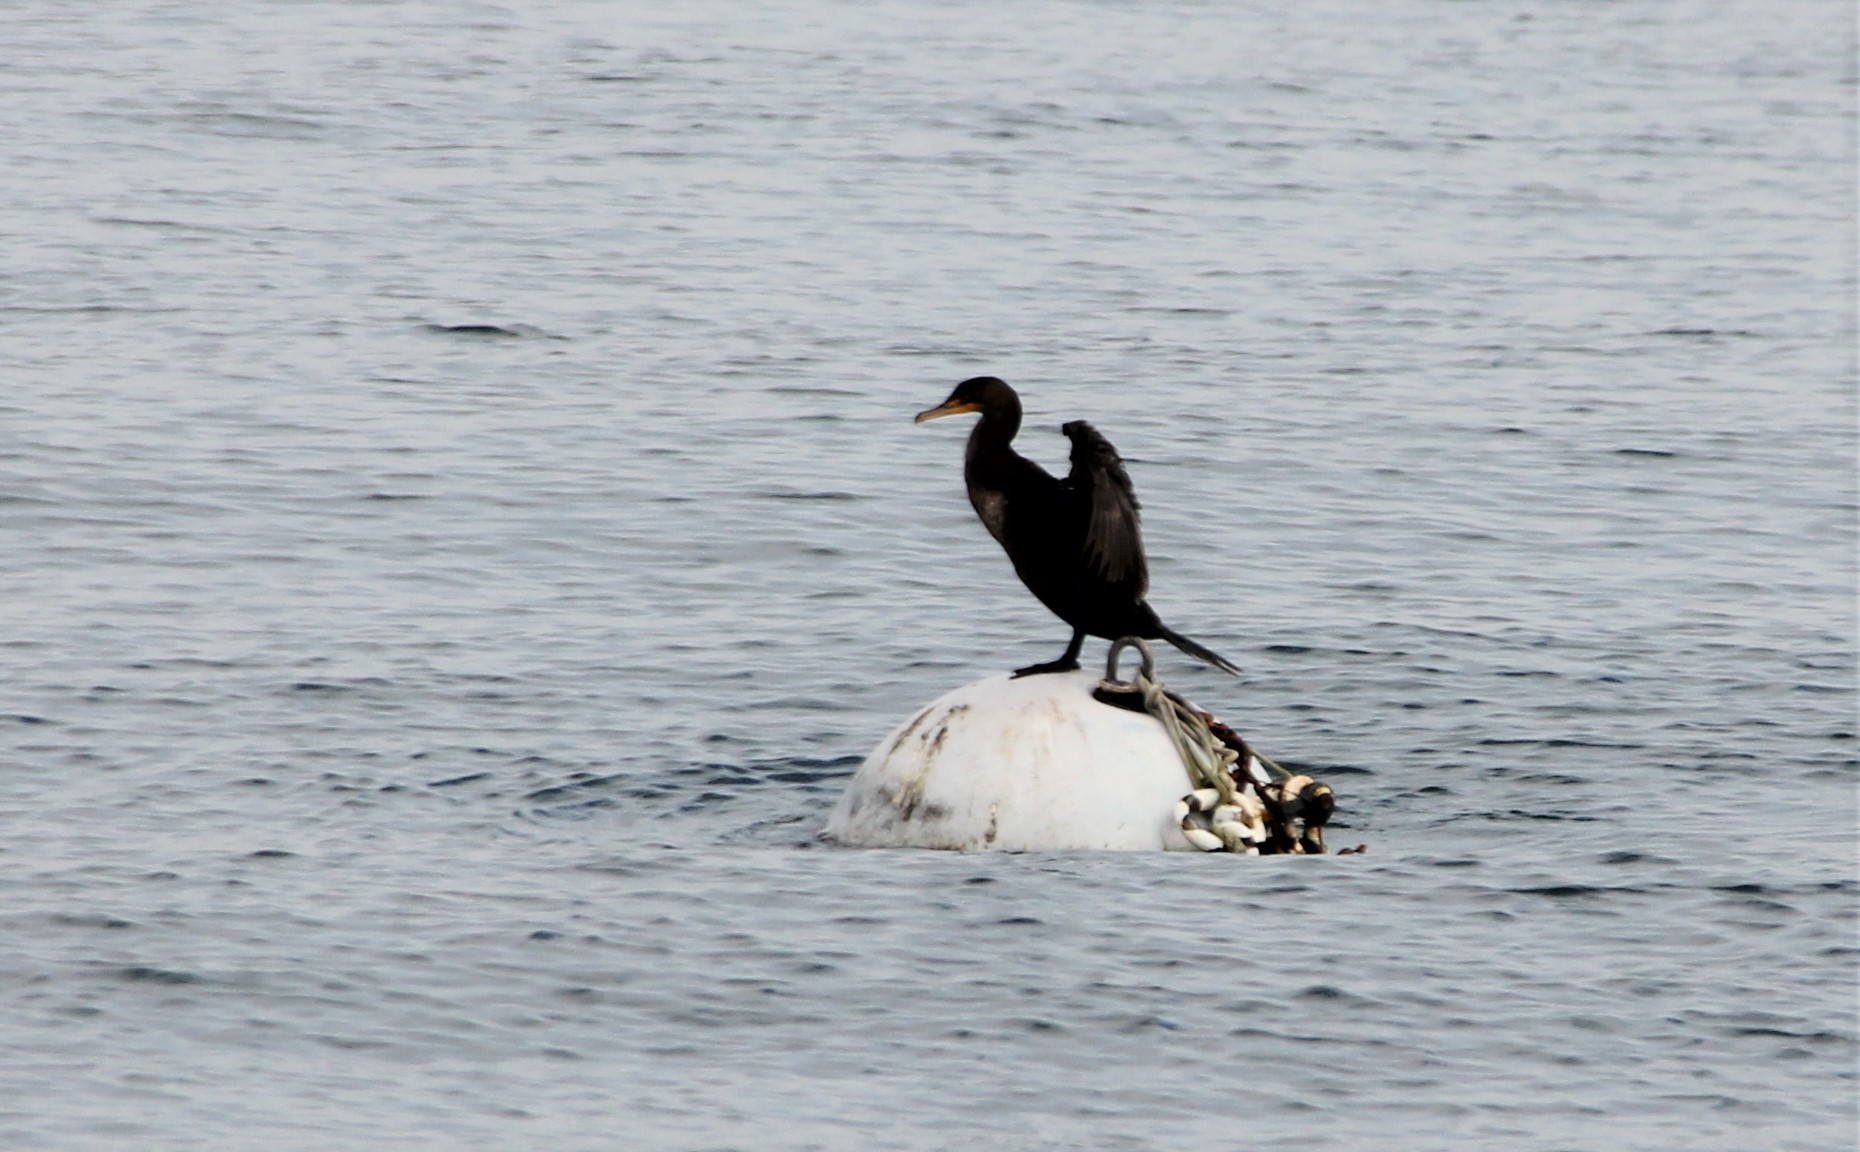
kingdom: Animalia
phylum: Chordata
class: Aves
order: Suliformes
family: Phalacrocoracidae
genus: Phalacrocorax
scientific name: Phalacrocorax auritus
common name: Double-crested cormorant
